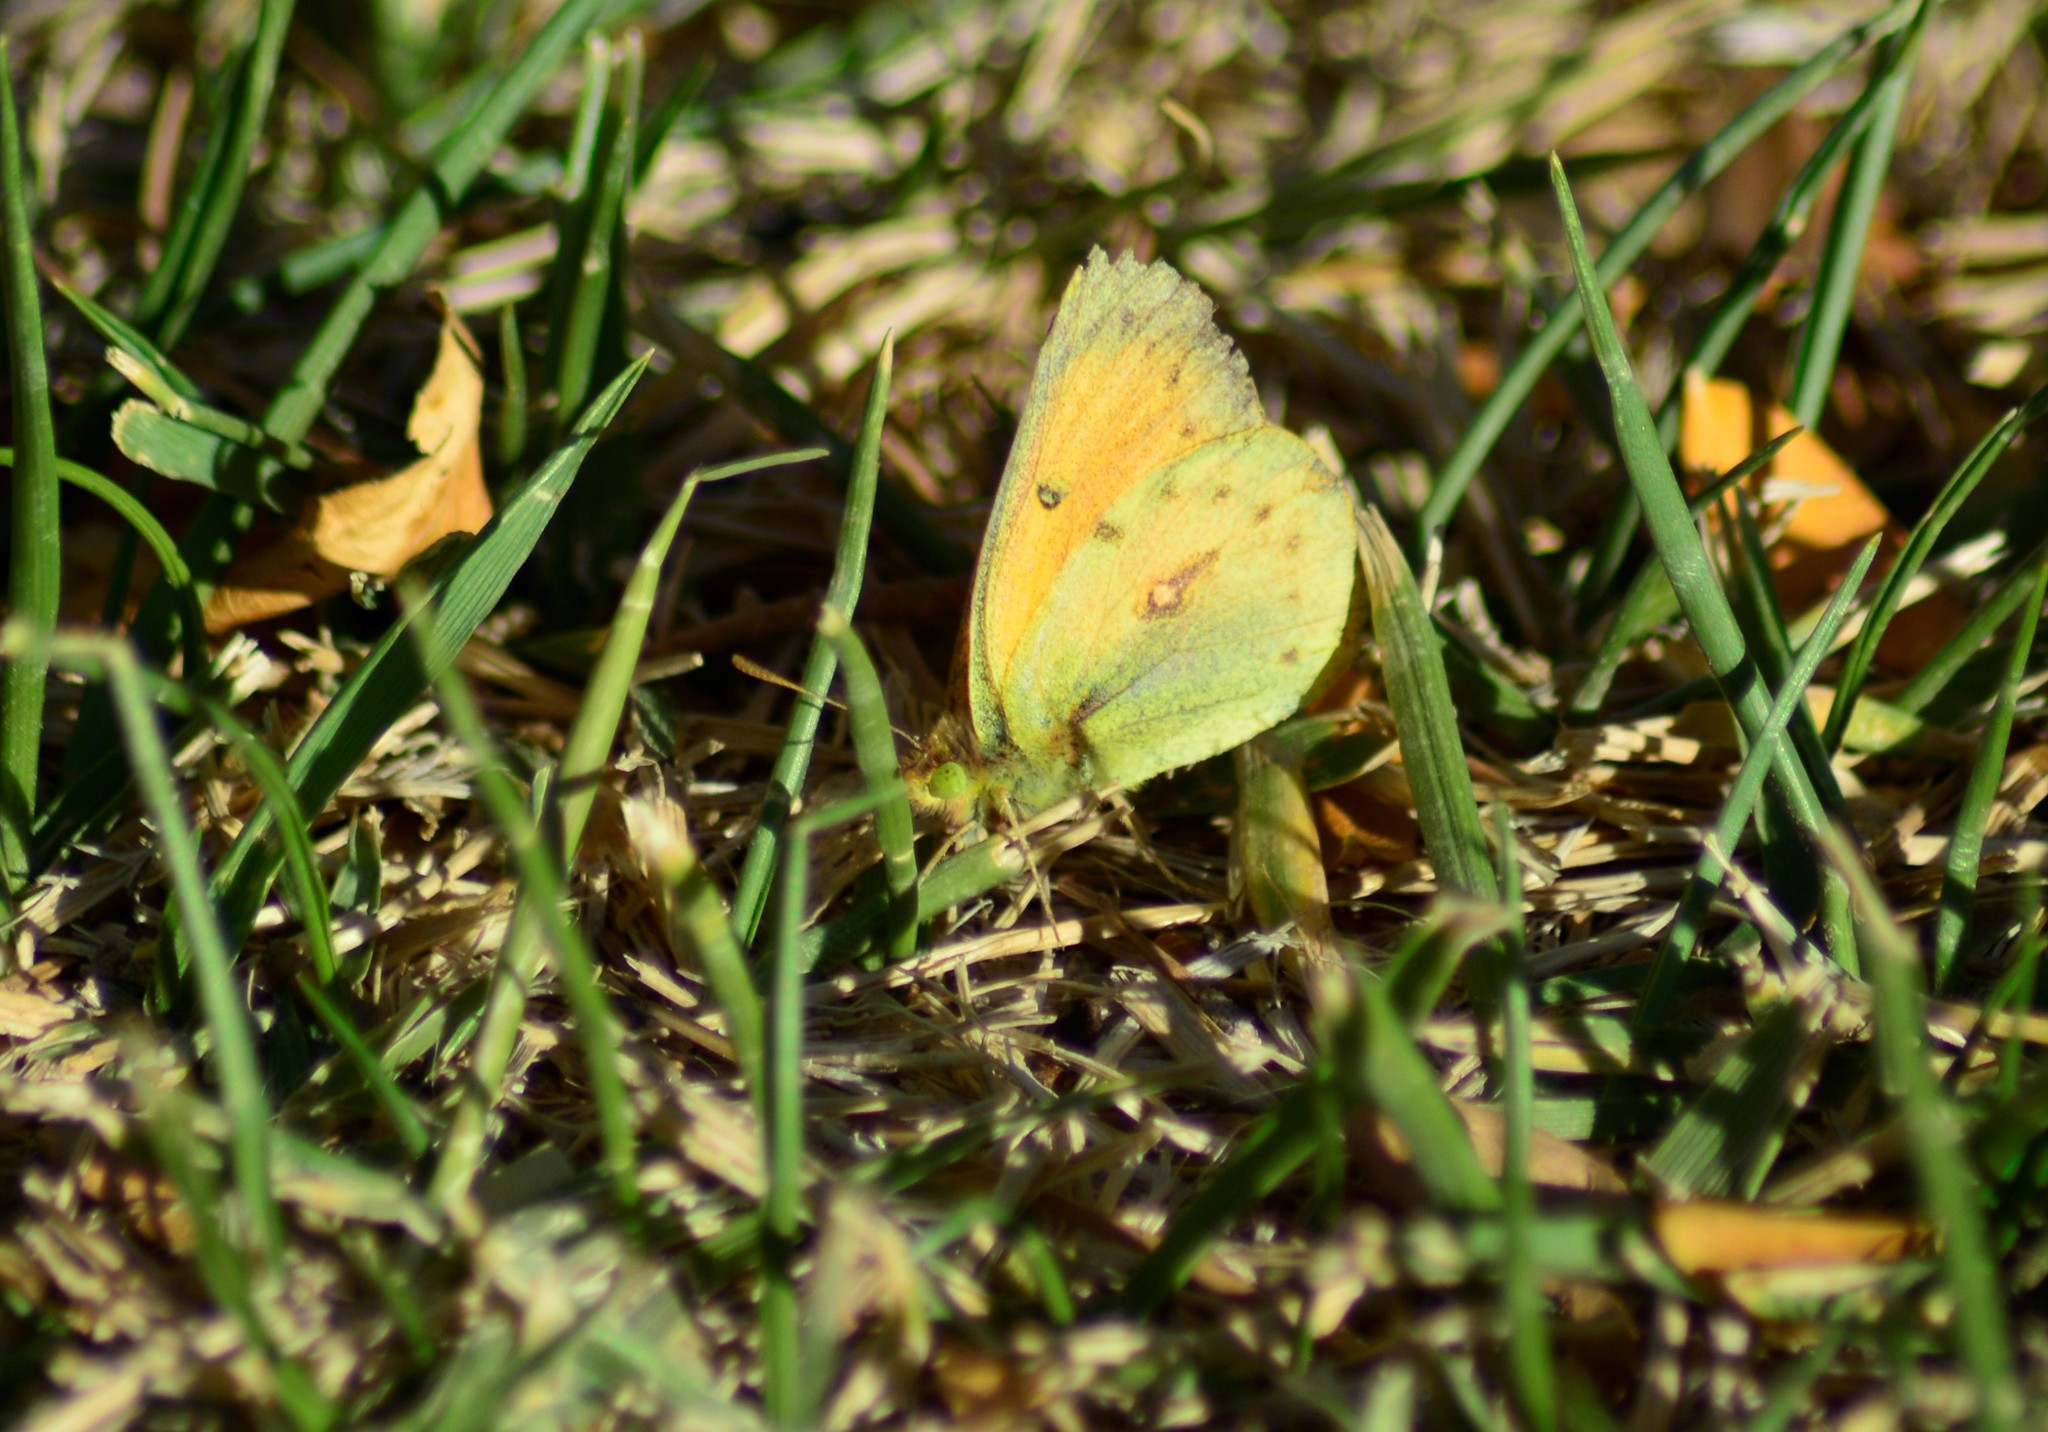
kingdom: Animalia
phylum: Arthropoda
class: Insecta
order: Lepidoptera
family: Pieridae
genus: Colias
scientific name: Colias lesbia
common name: Lesbia clouded yellow
